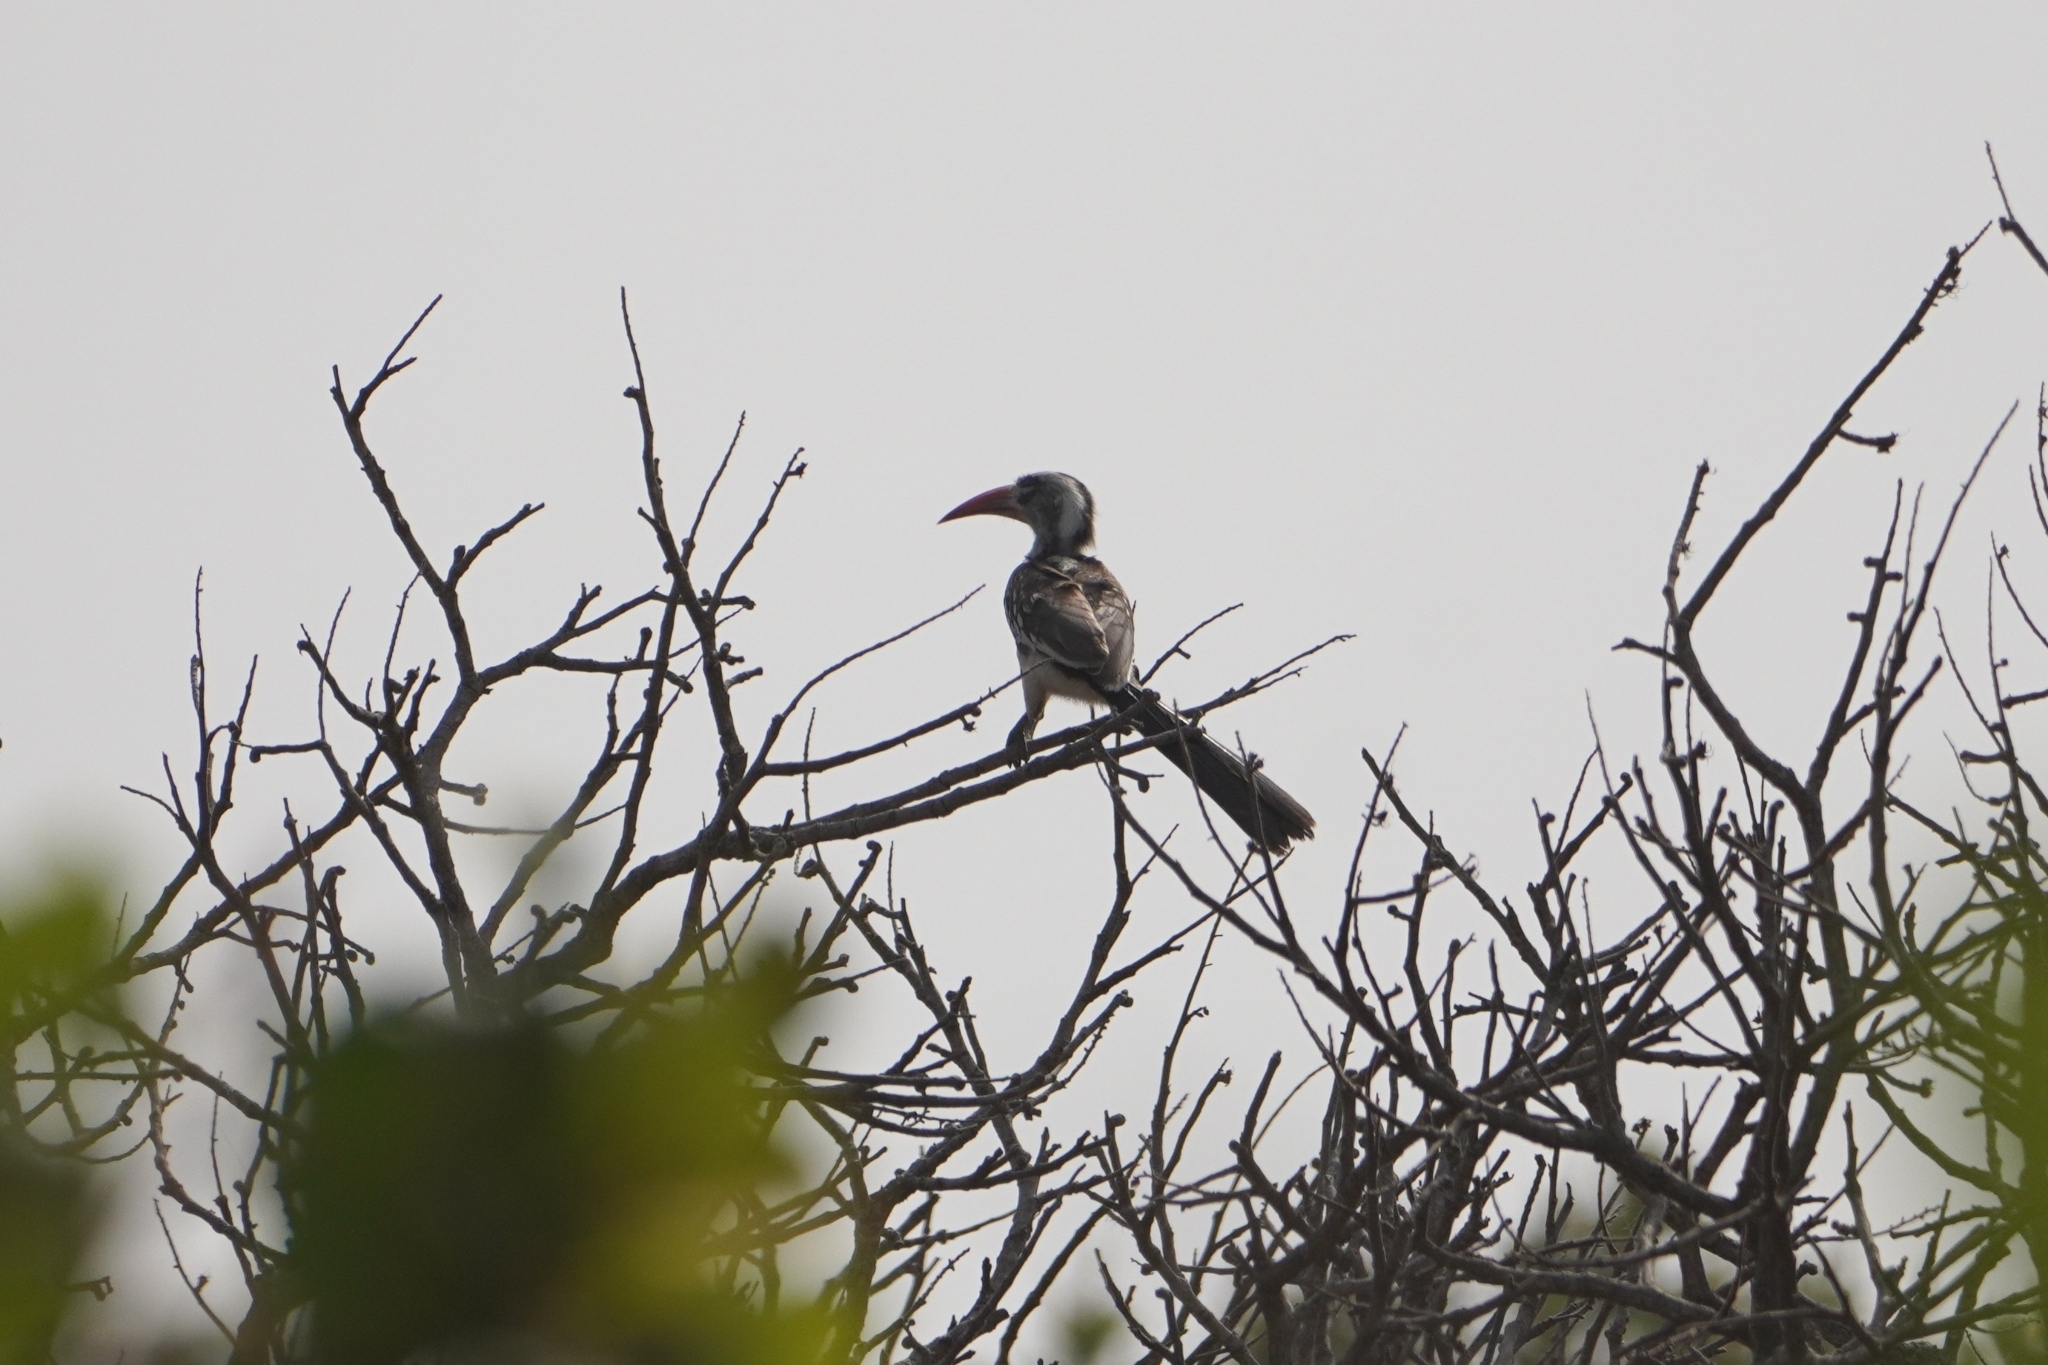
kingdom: Animalia
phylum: Chordata
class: Aves
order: Bucerotiformes
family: Bucerotidae
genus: Tockus
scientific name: Tockus kempi
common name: Western red-billed hornbill
